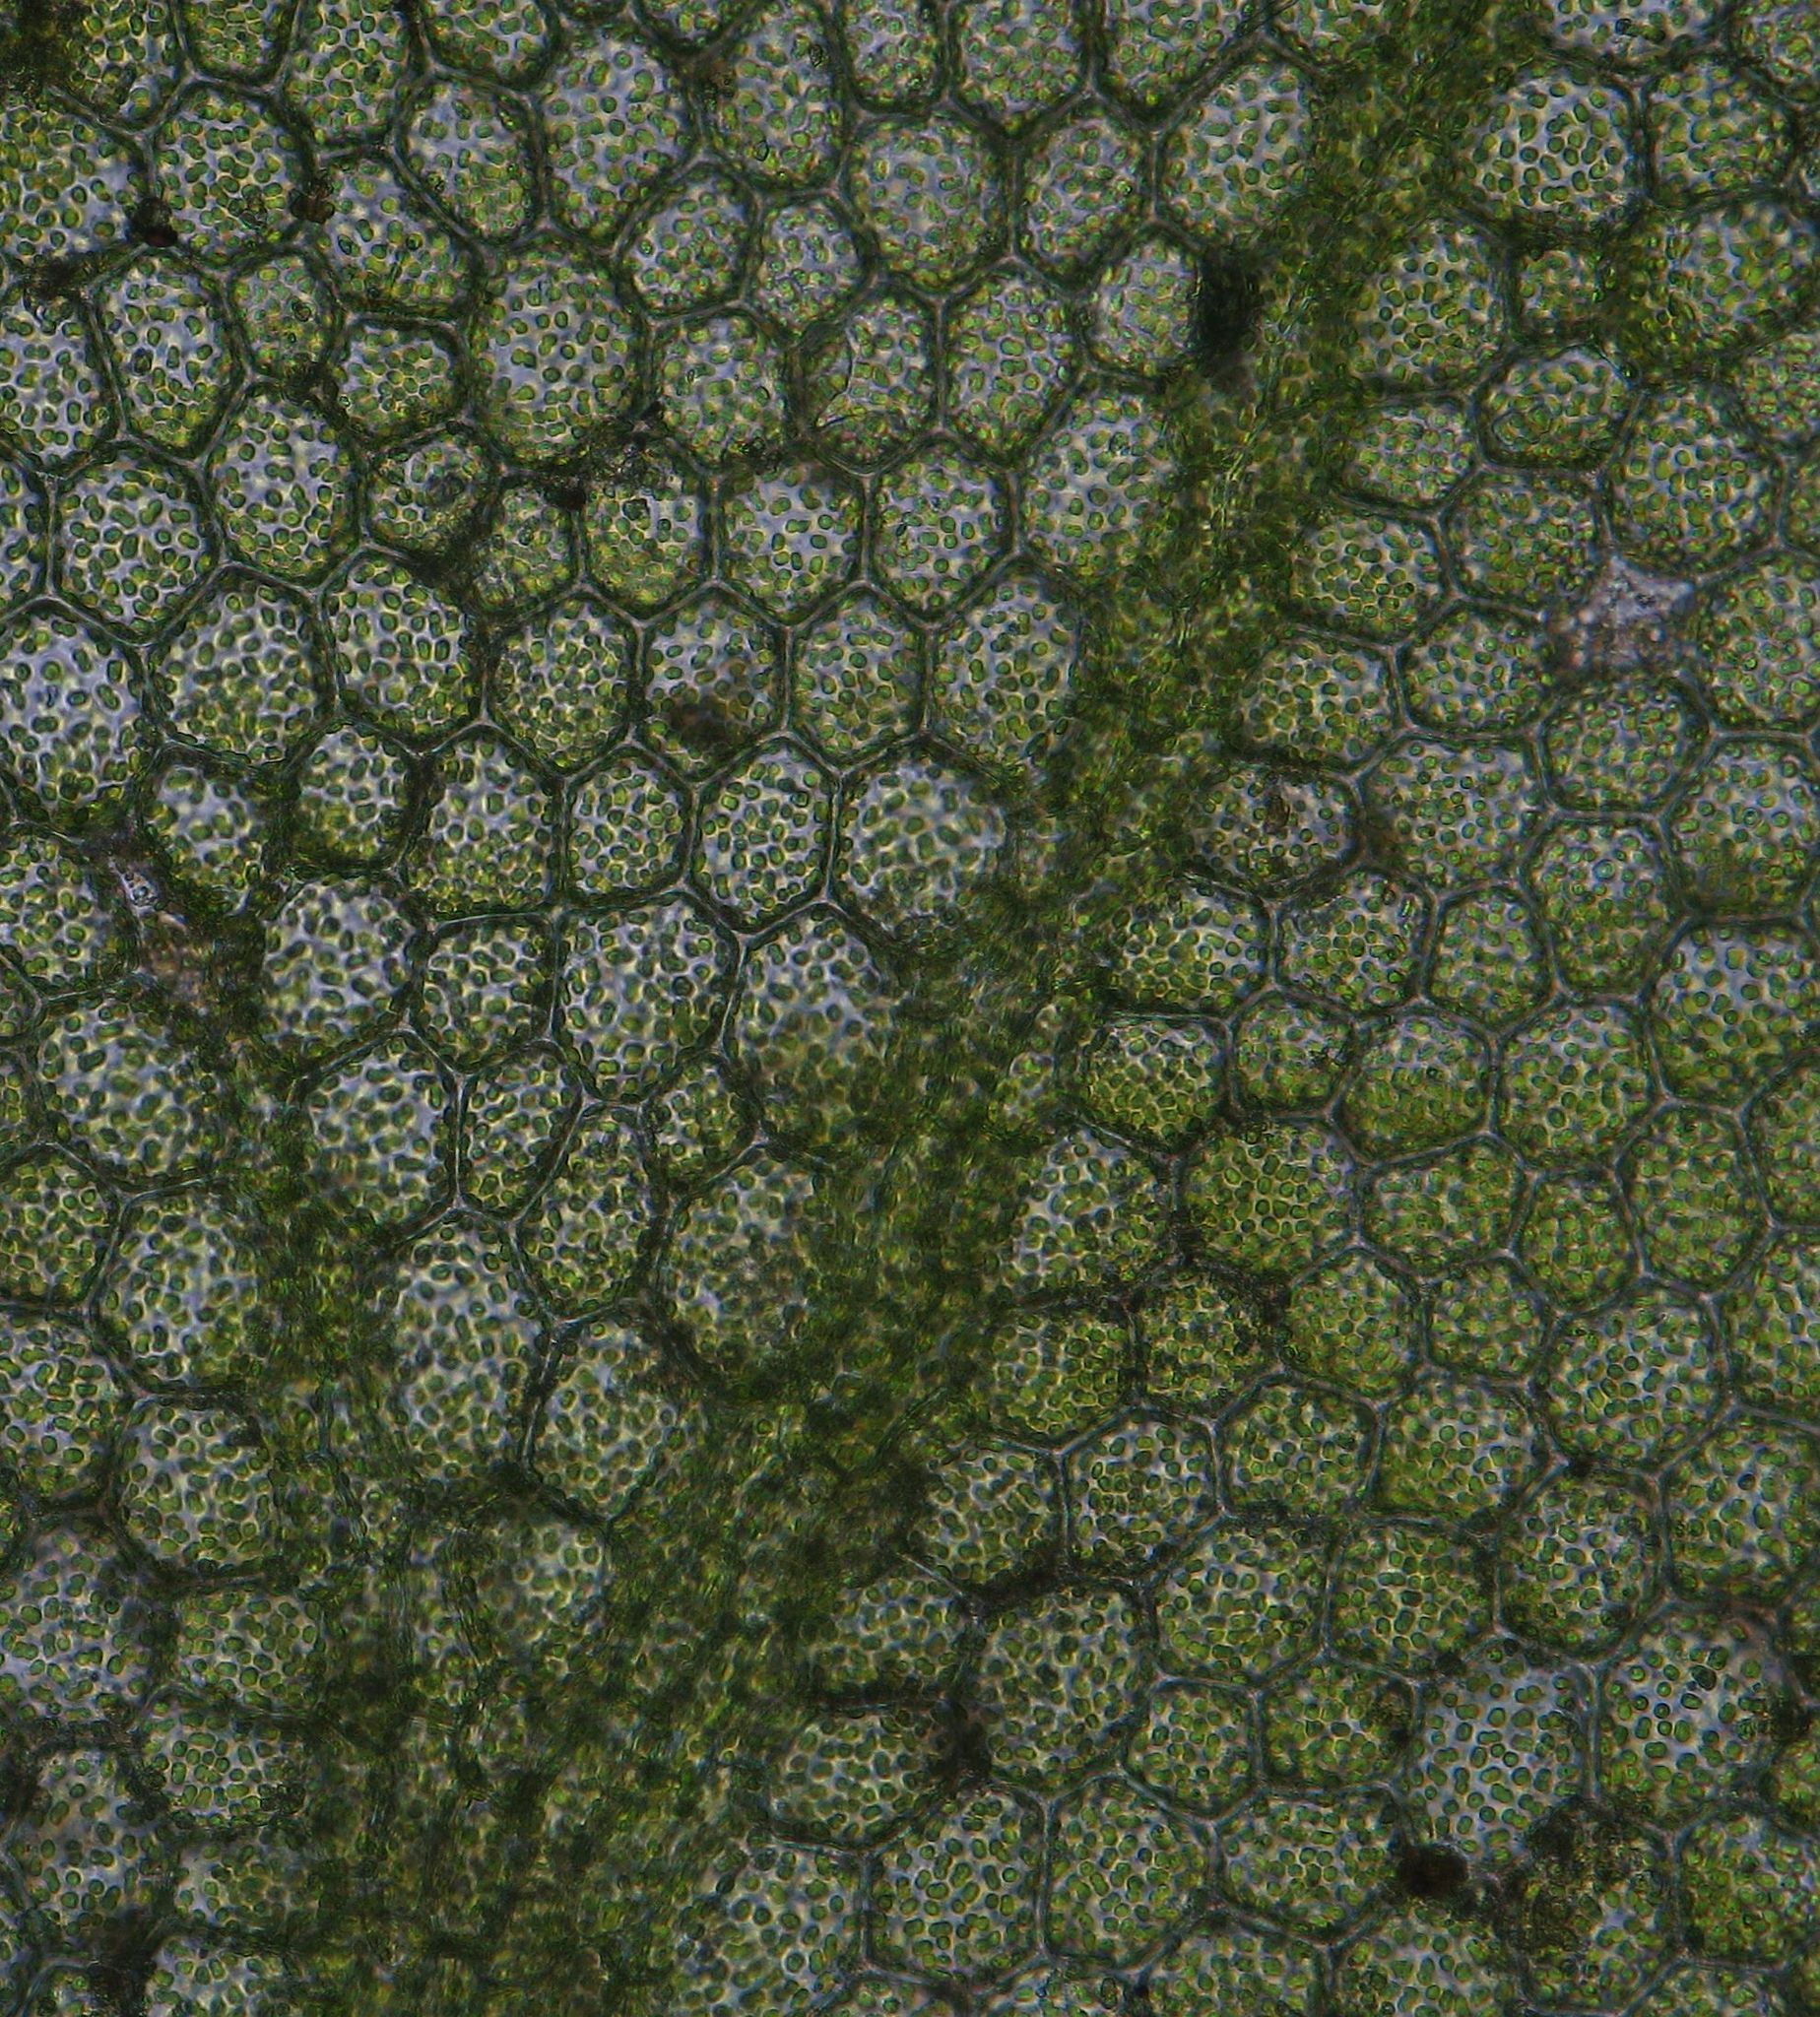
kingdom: Plantae
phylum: Bryophyta
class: Bryopsida
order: Hookeriales
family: Daltoniaceae
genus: Achrophyllum
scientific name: Achrophyllum quadrifarium
